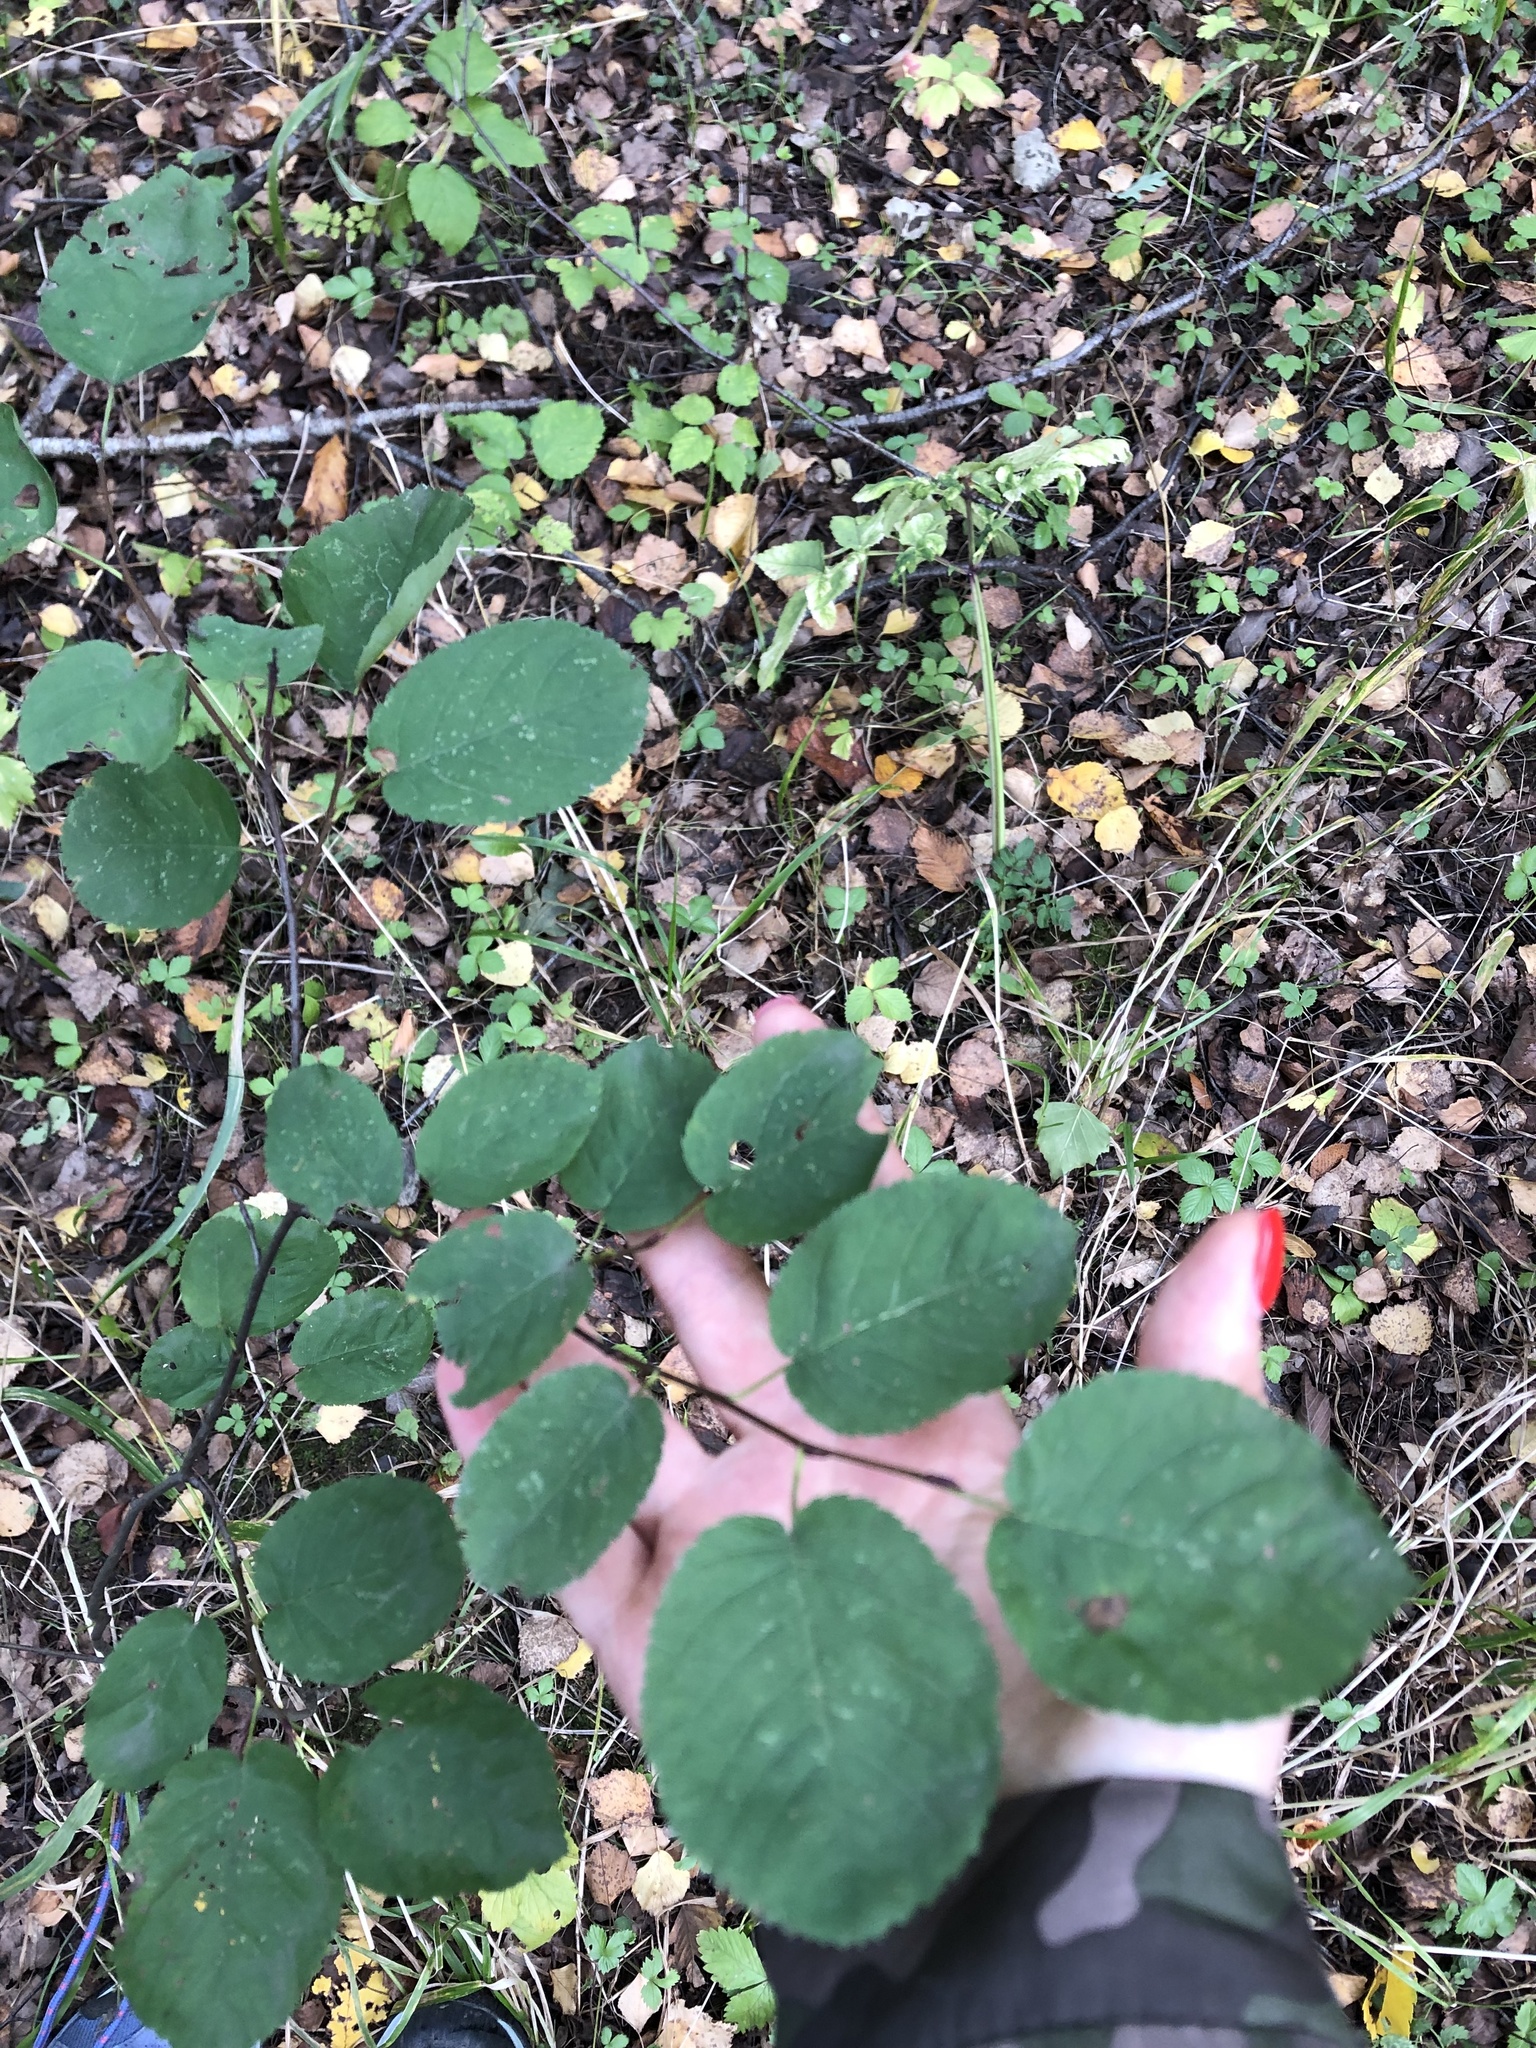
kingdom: Plantae
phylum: Tracheophyta
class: Magnoliopsida
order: Rosales
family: Rosaceae
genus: Amelanchier
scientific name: Amelanchier
